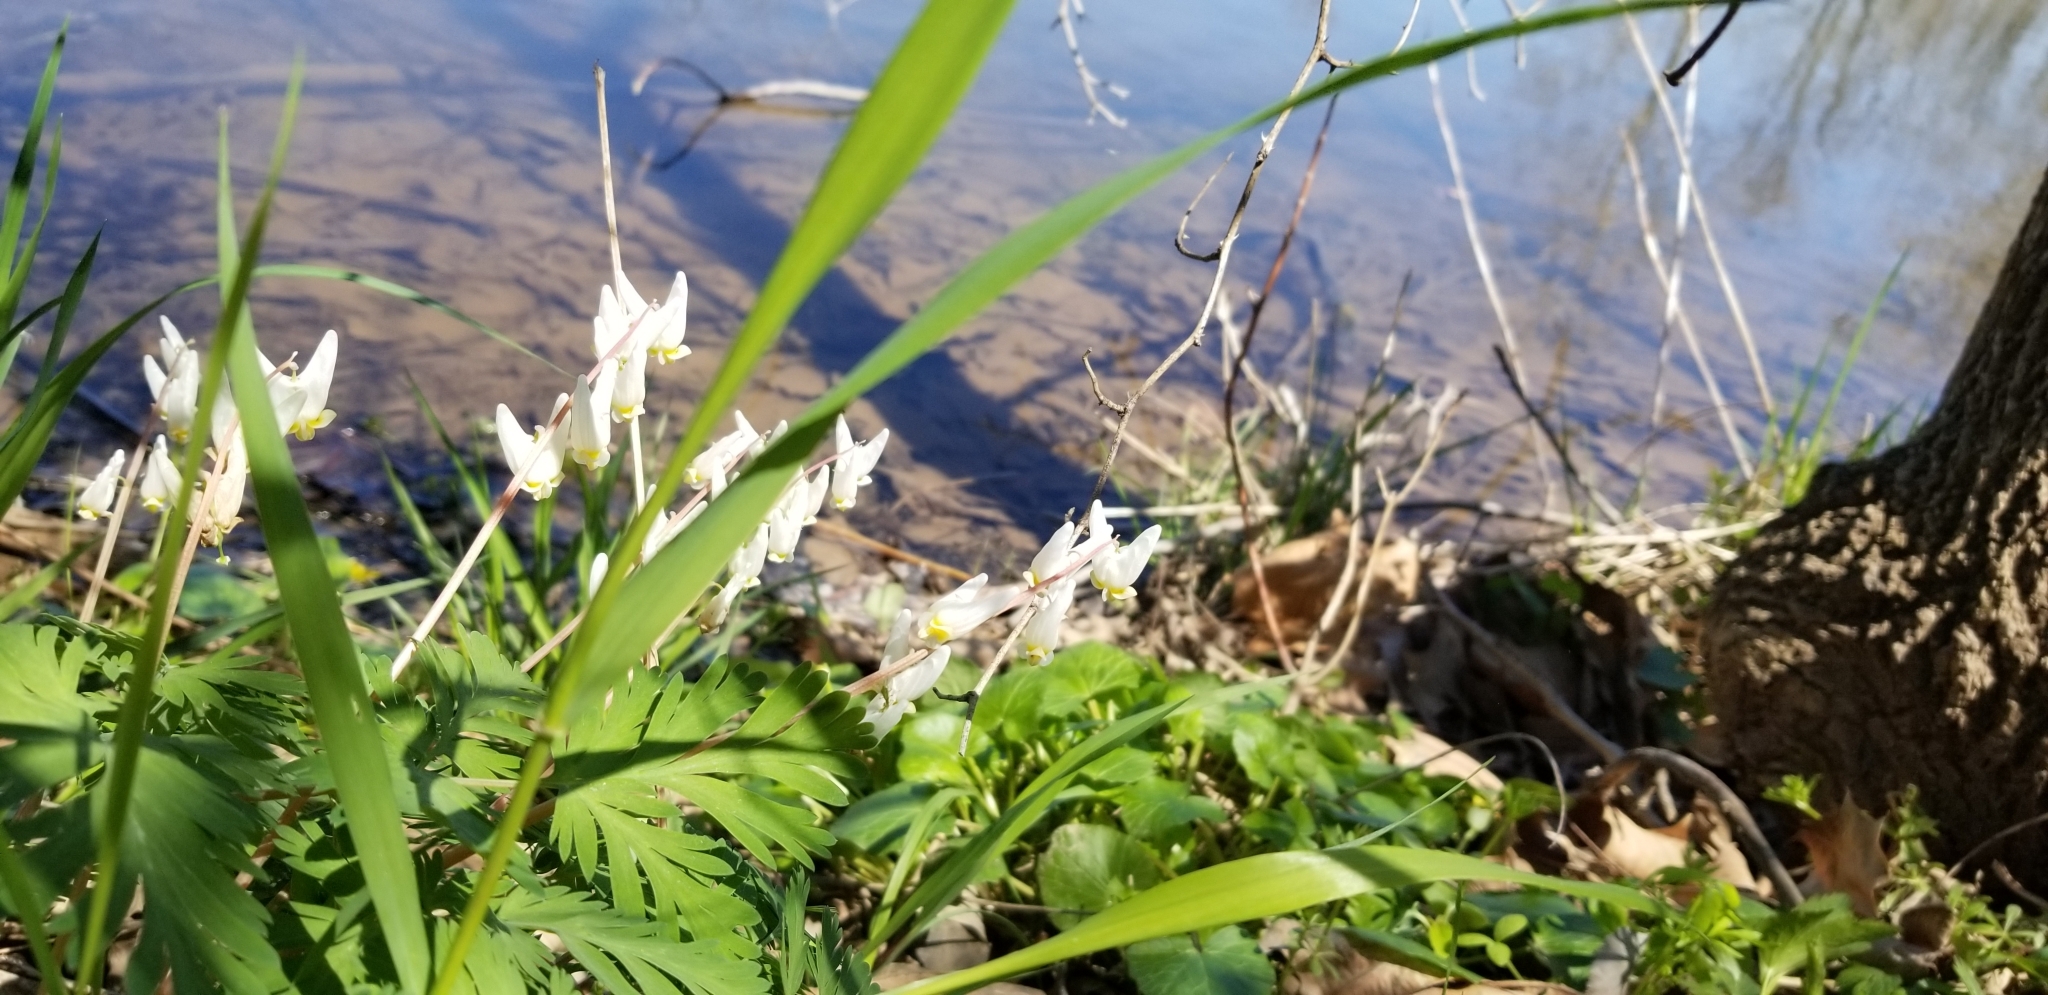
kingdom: Plantae
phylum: Tracheophyta
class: Magnoliopsida
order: Ranunculales
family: Papaveraceae
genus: Dicentra
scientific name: Dicentra cucullaria
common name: Dutchman's breeches
